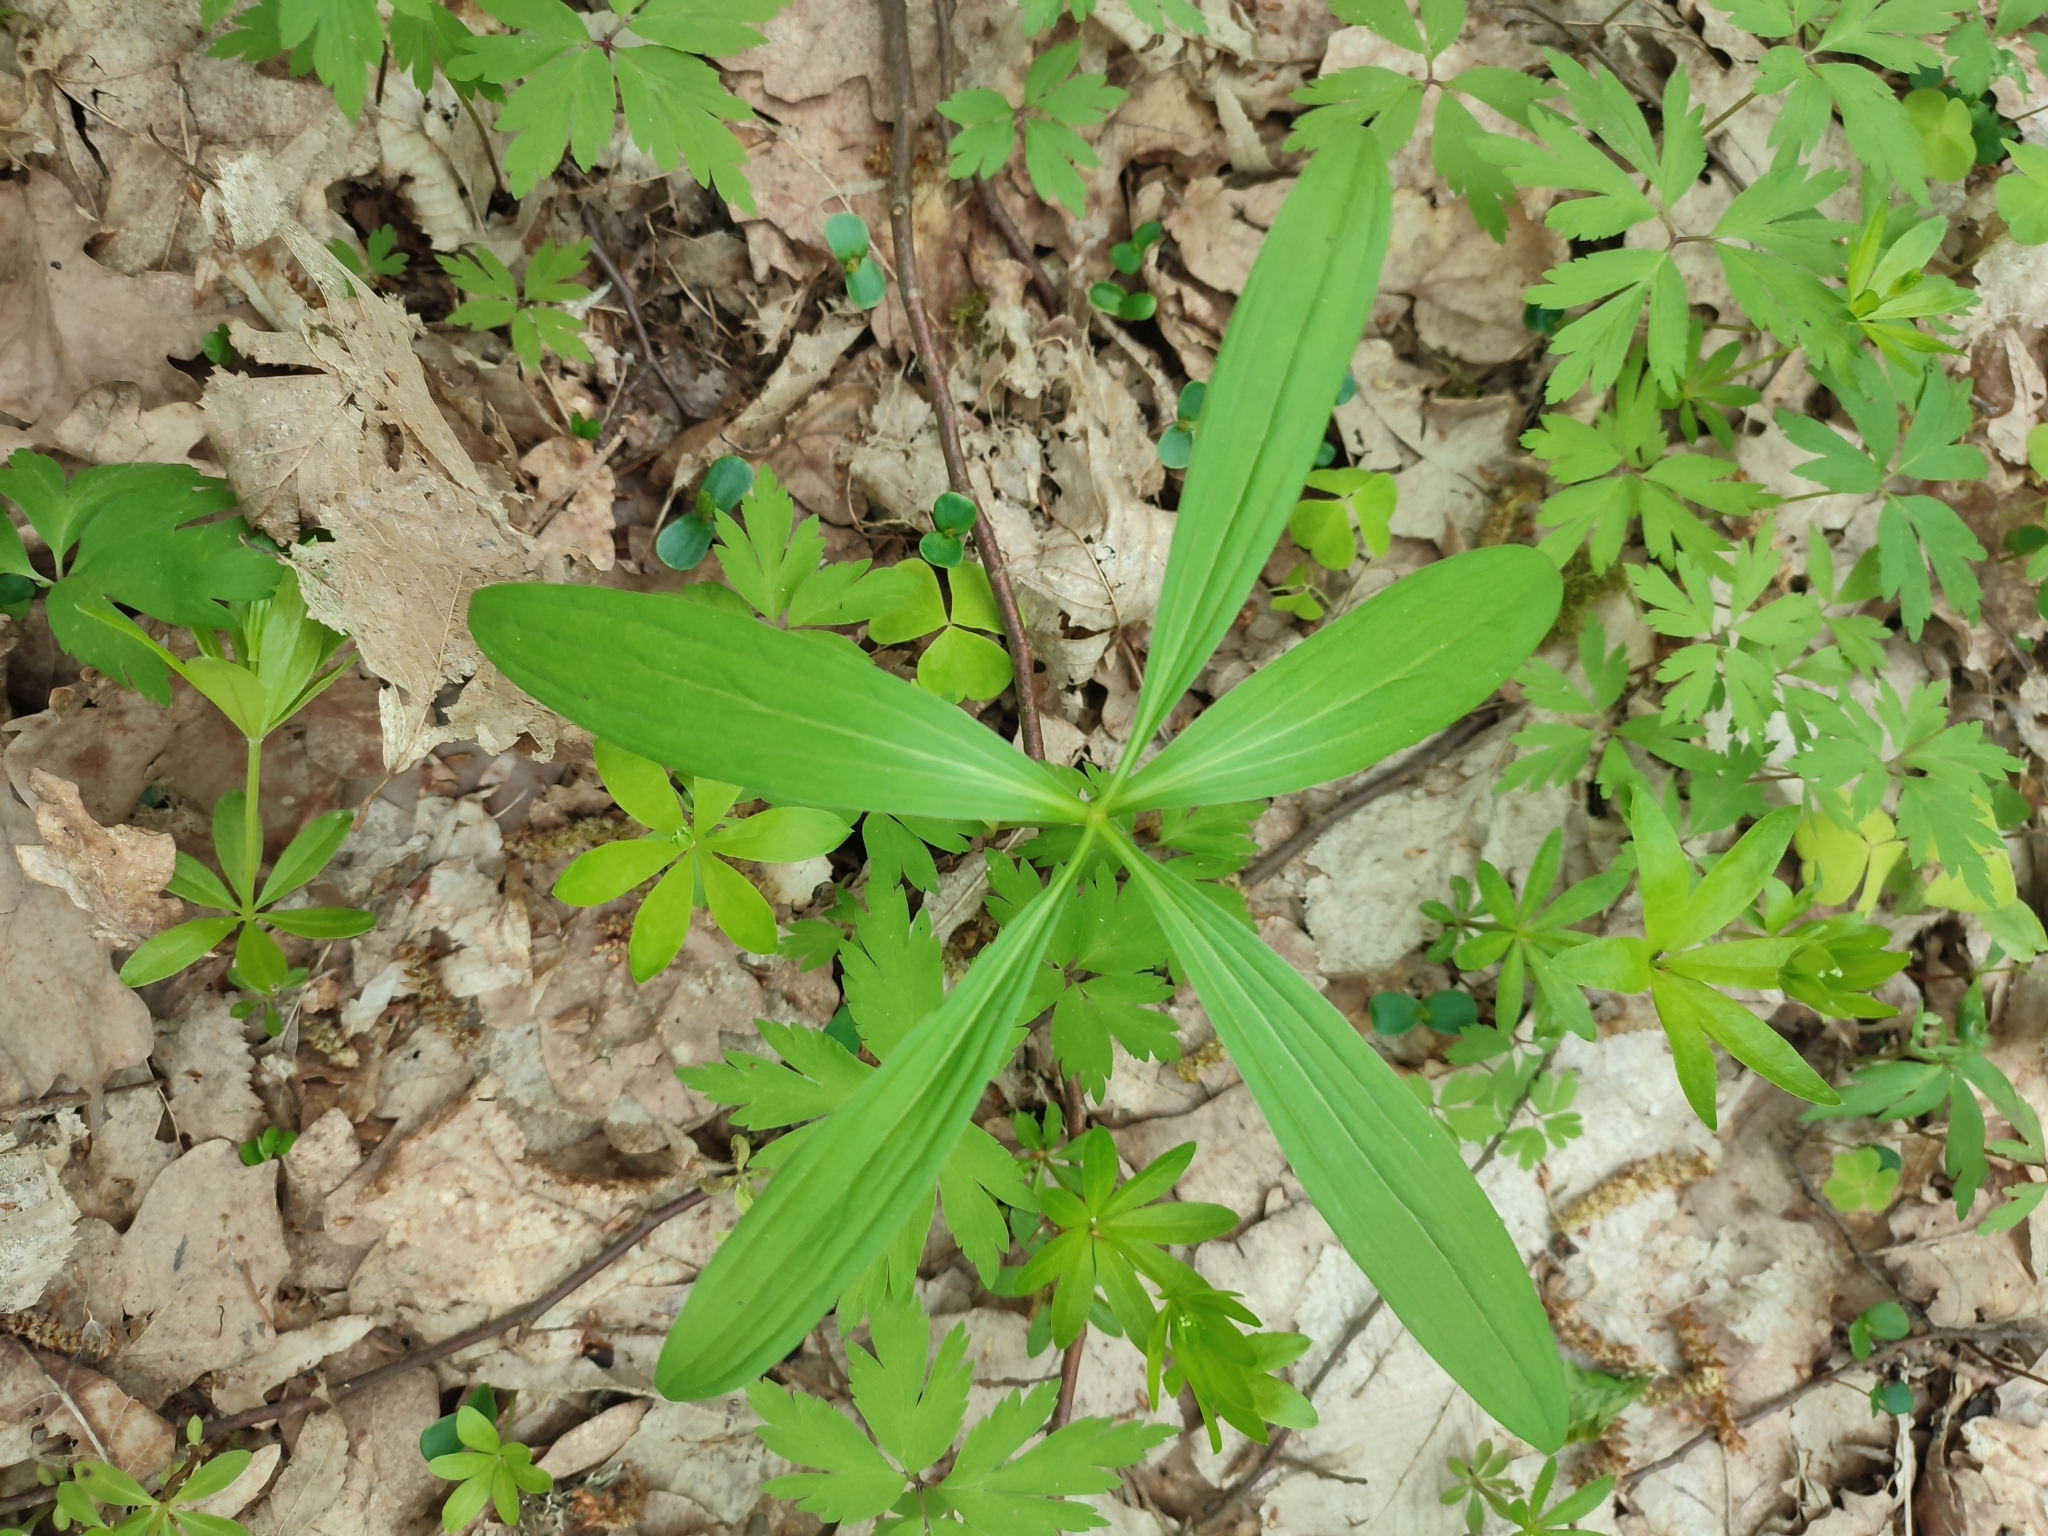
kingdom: Plantae
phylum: Tracheophyta
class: Liliopsida
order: Liliales
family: Liliaceae
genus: Lilium
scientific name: Lilium martagon
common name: Martagon lily
